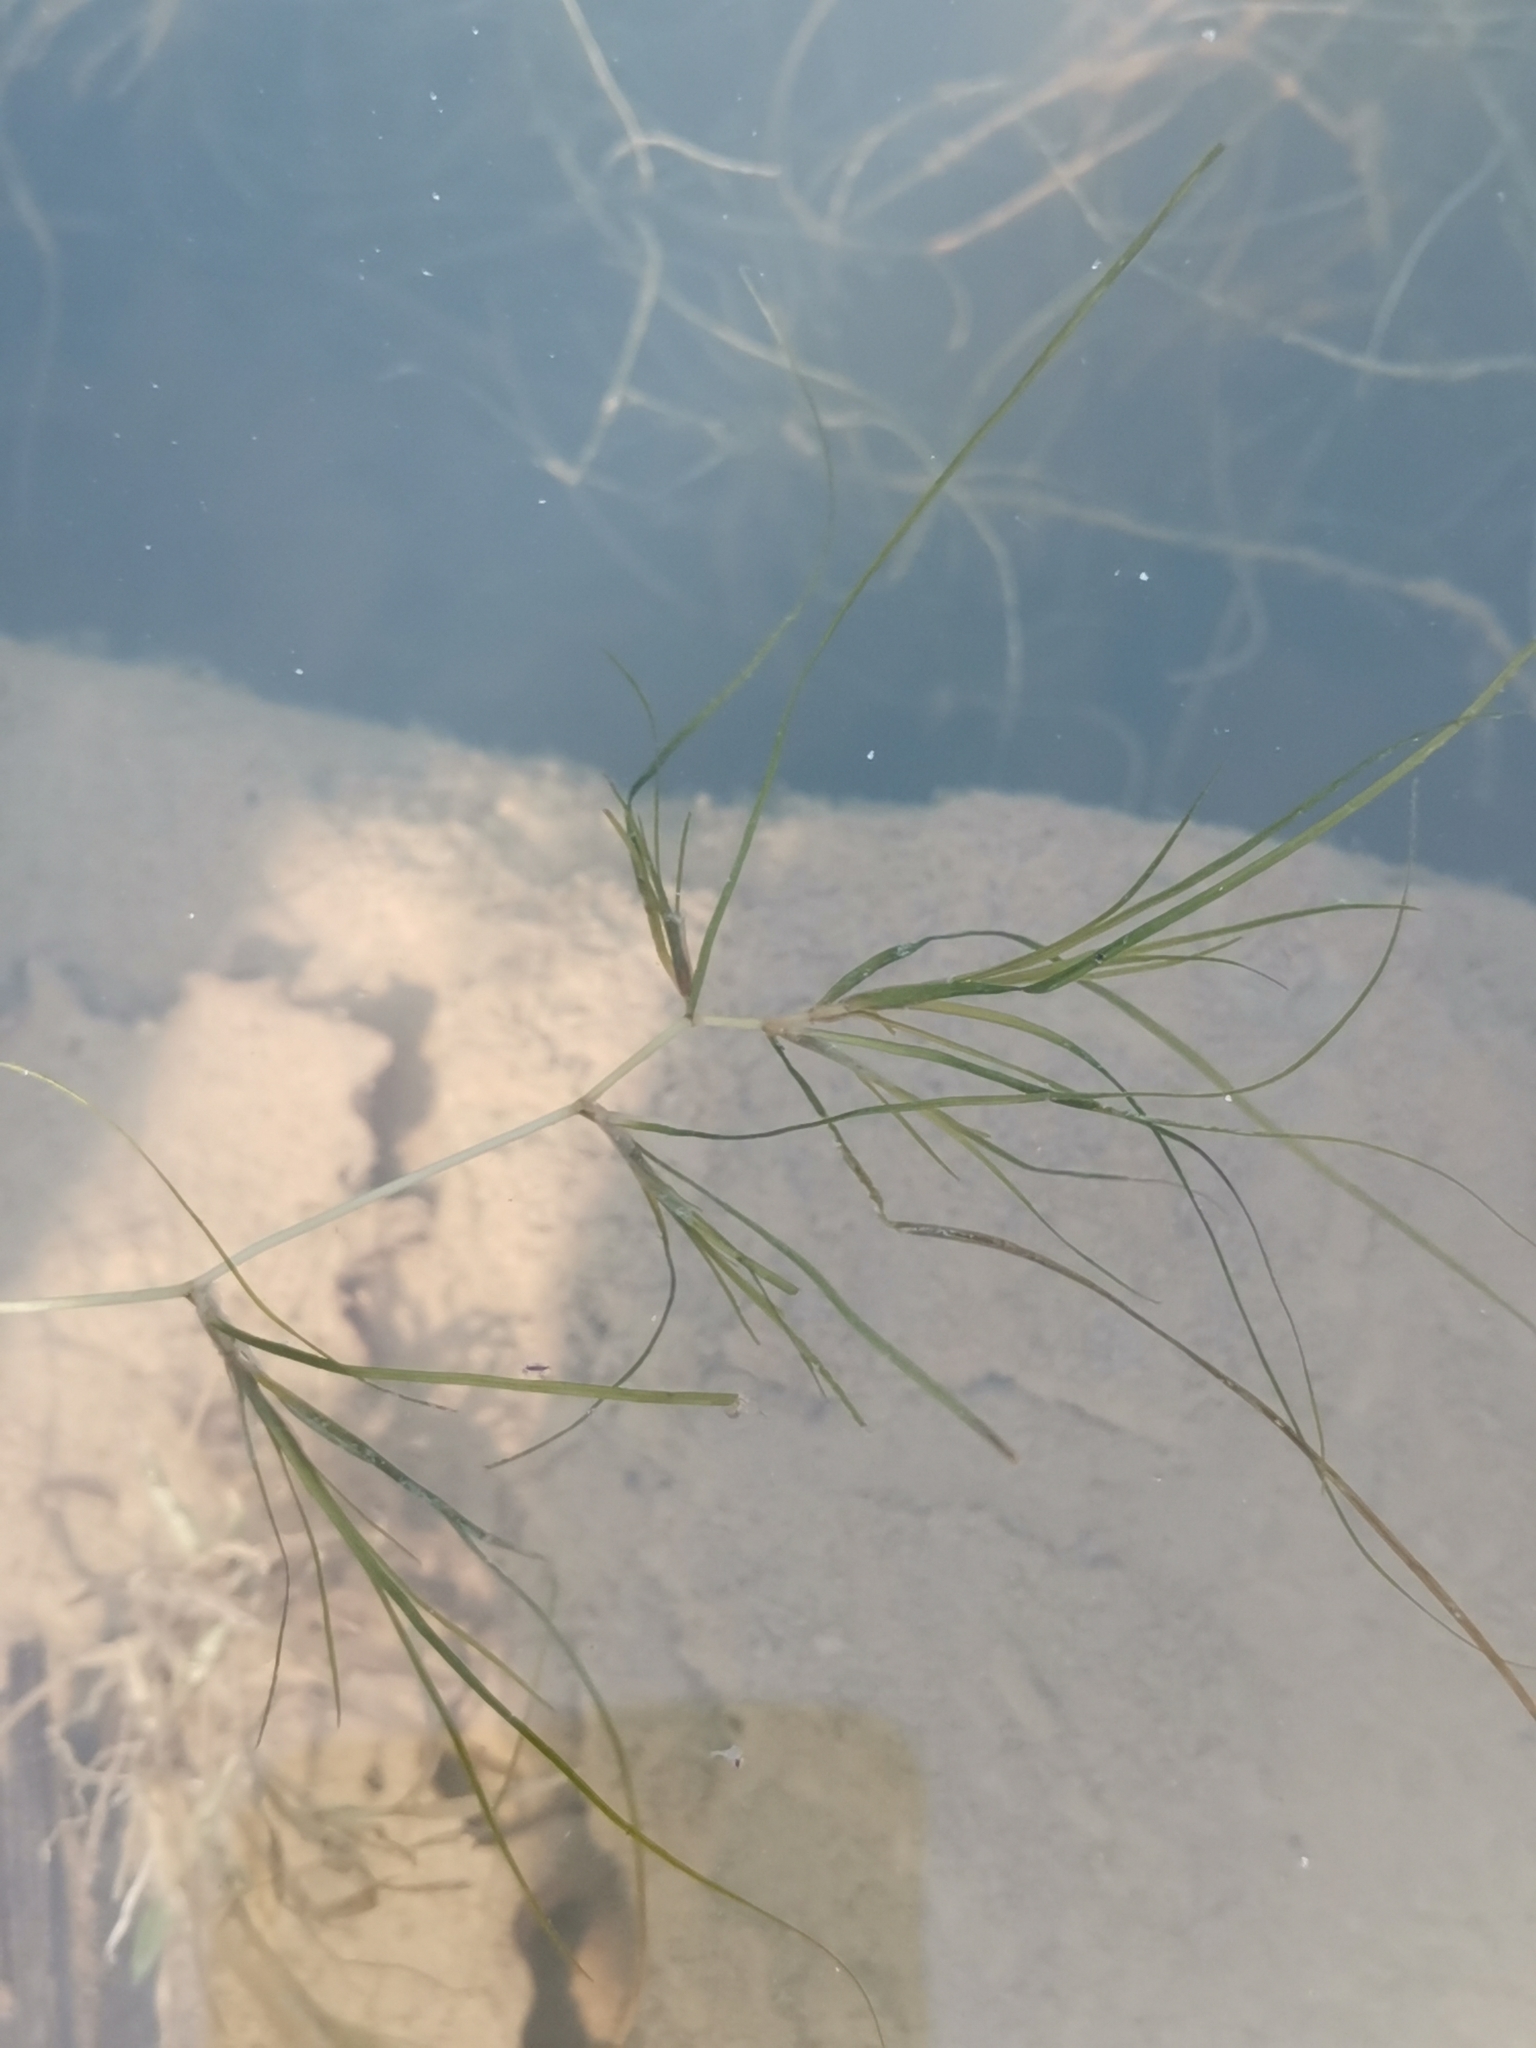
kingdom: Plantae
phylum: Tracheophyta
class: Liliopsida
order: Alismatales
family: Potamogetonaceae
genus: Zannichellia
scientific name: Zannichellia palustris
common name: Horned pondweed
